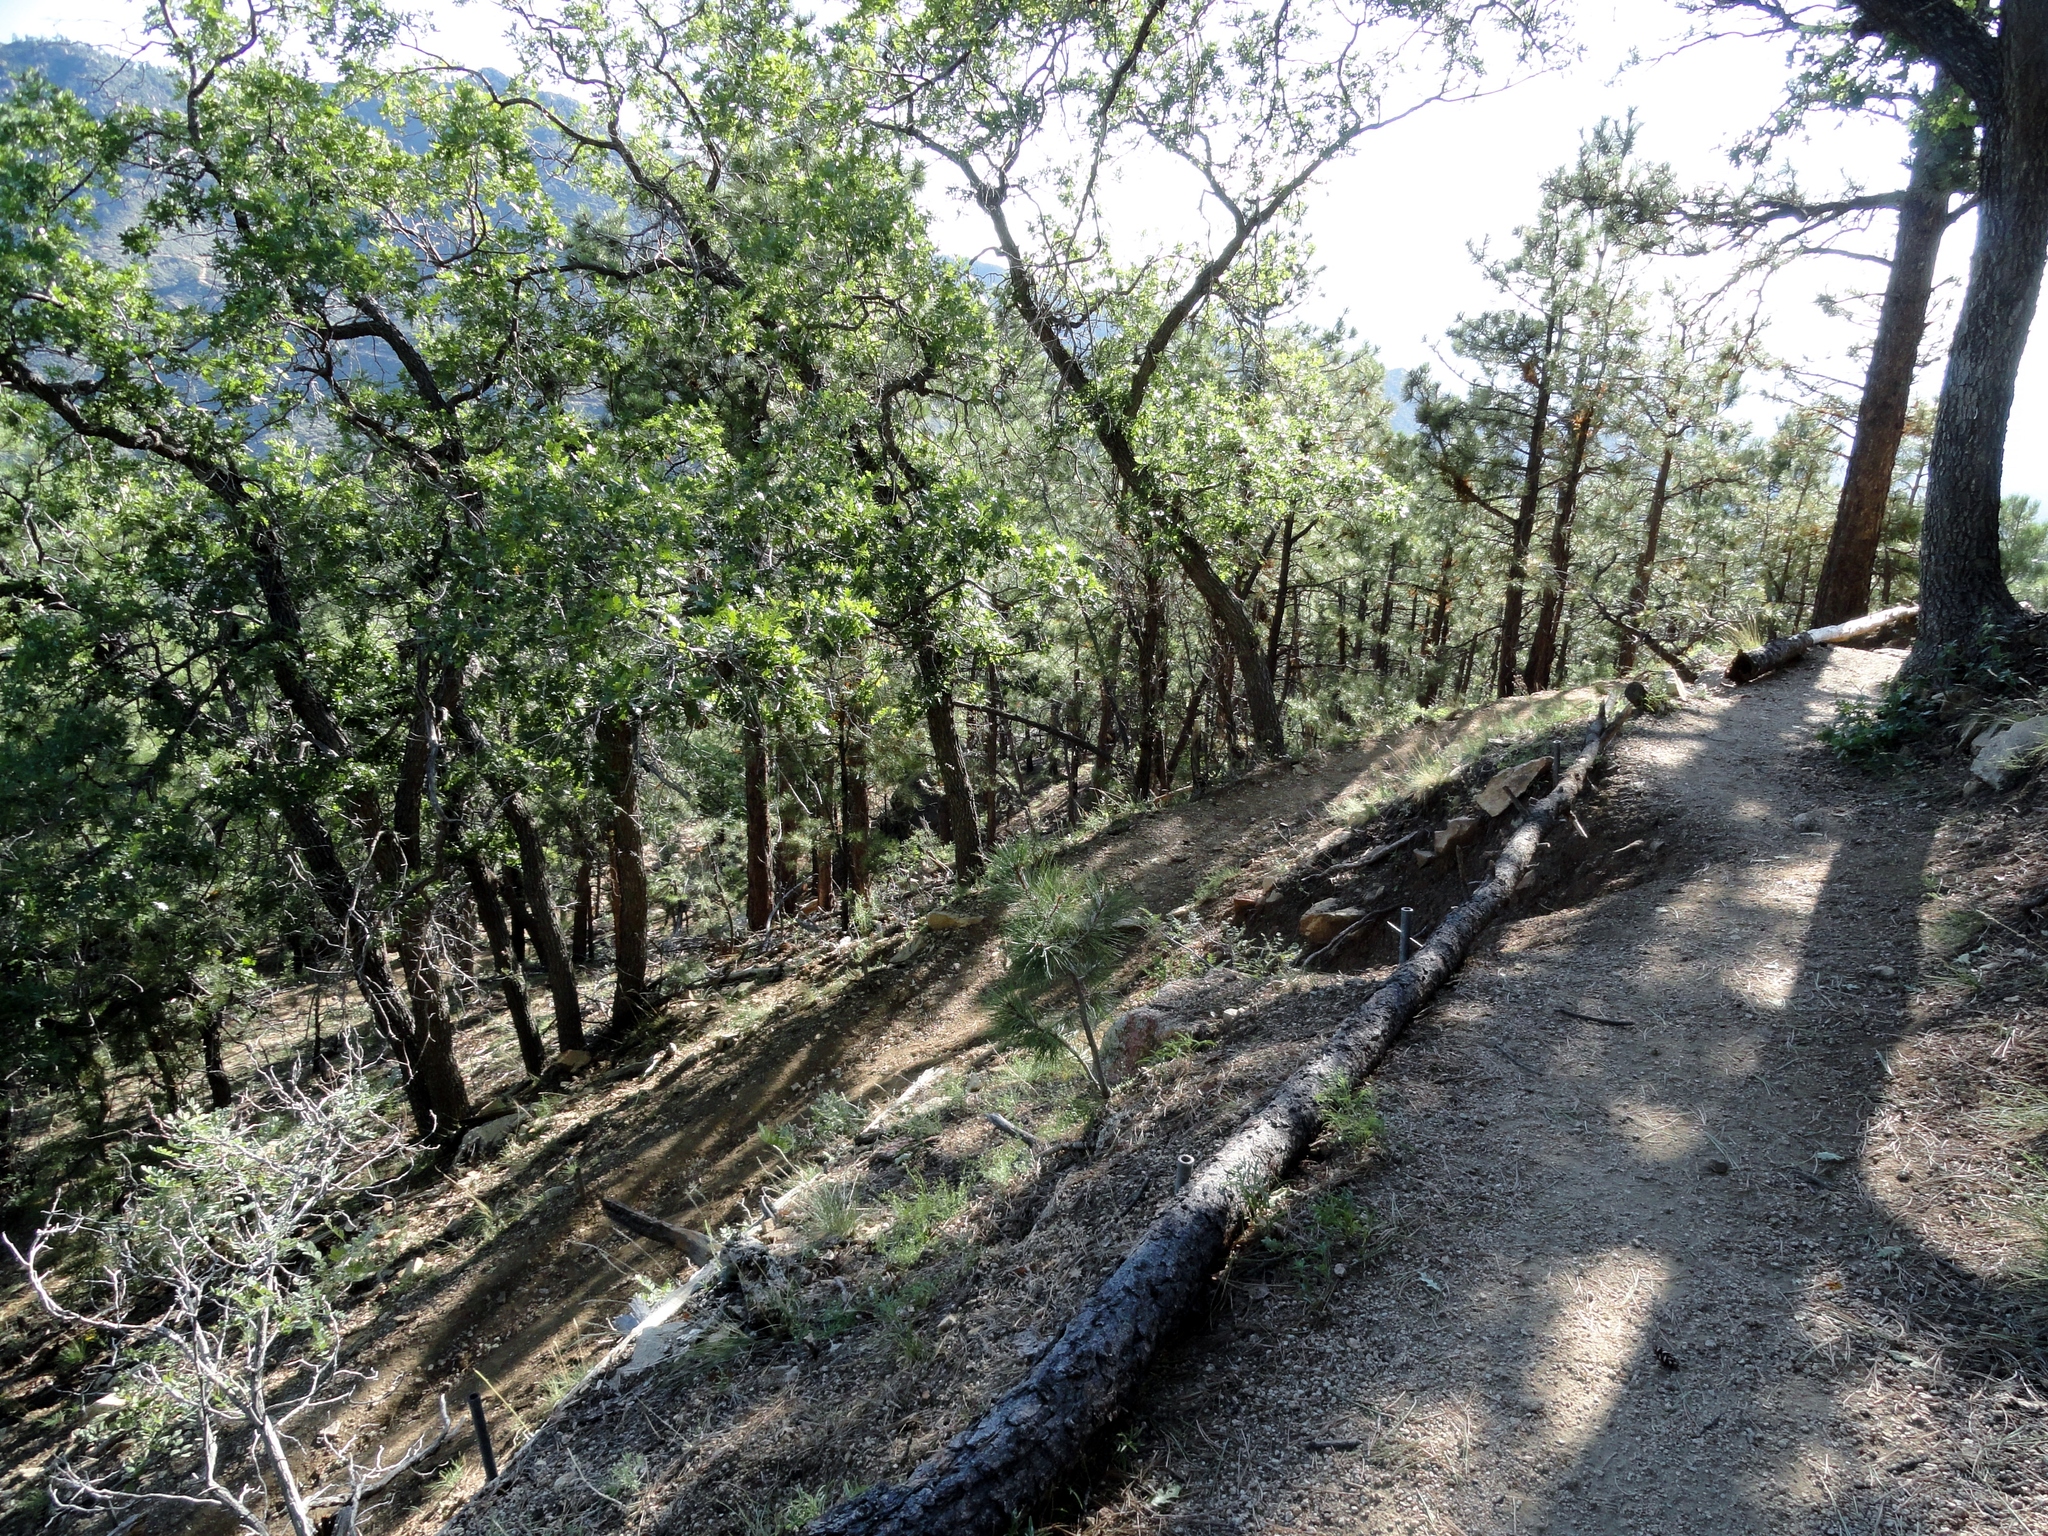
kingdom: Plantae
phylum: Tracheophyta
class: Magnoliopsida
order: Fagales
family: Fagaceae
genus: Quercus
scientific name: Quercus gambelii
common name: Gambel oak
